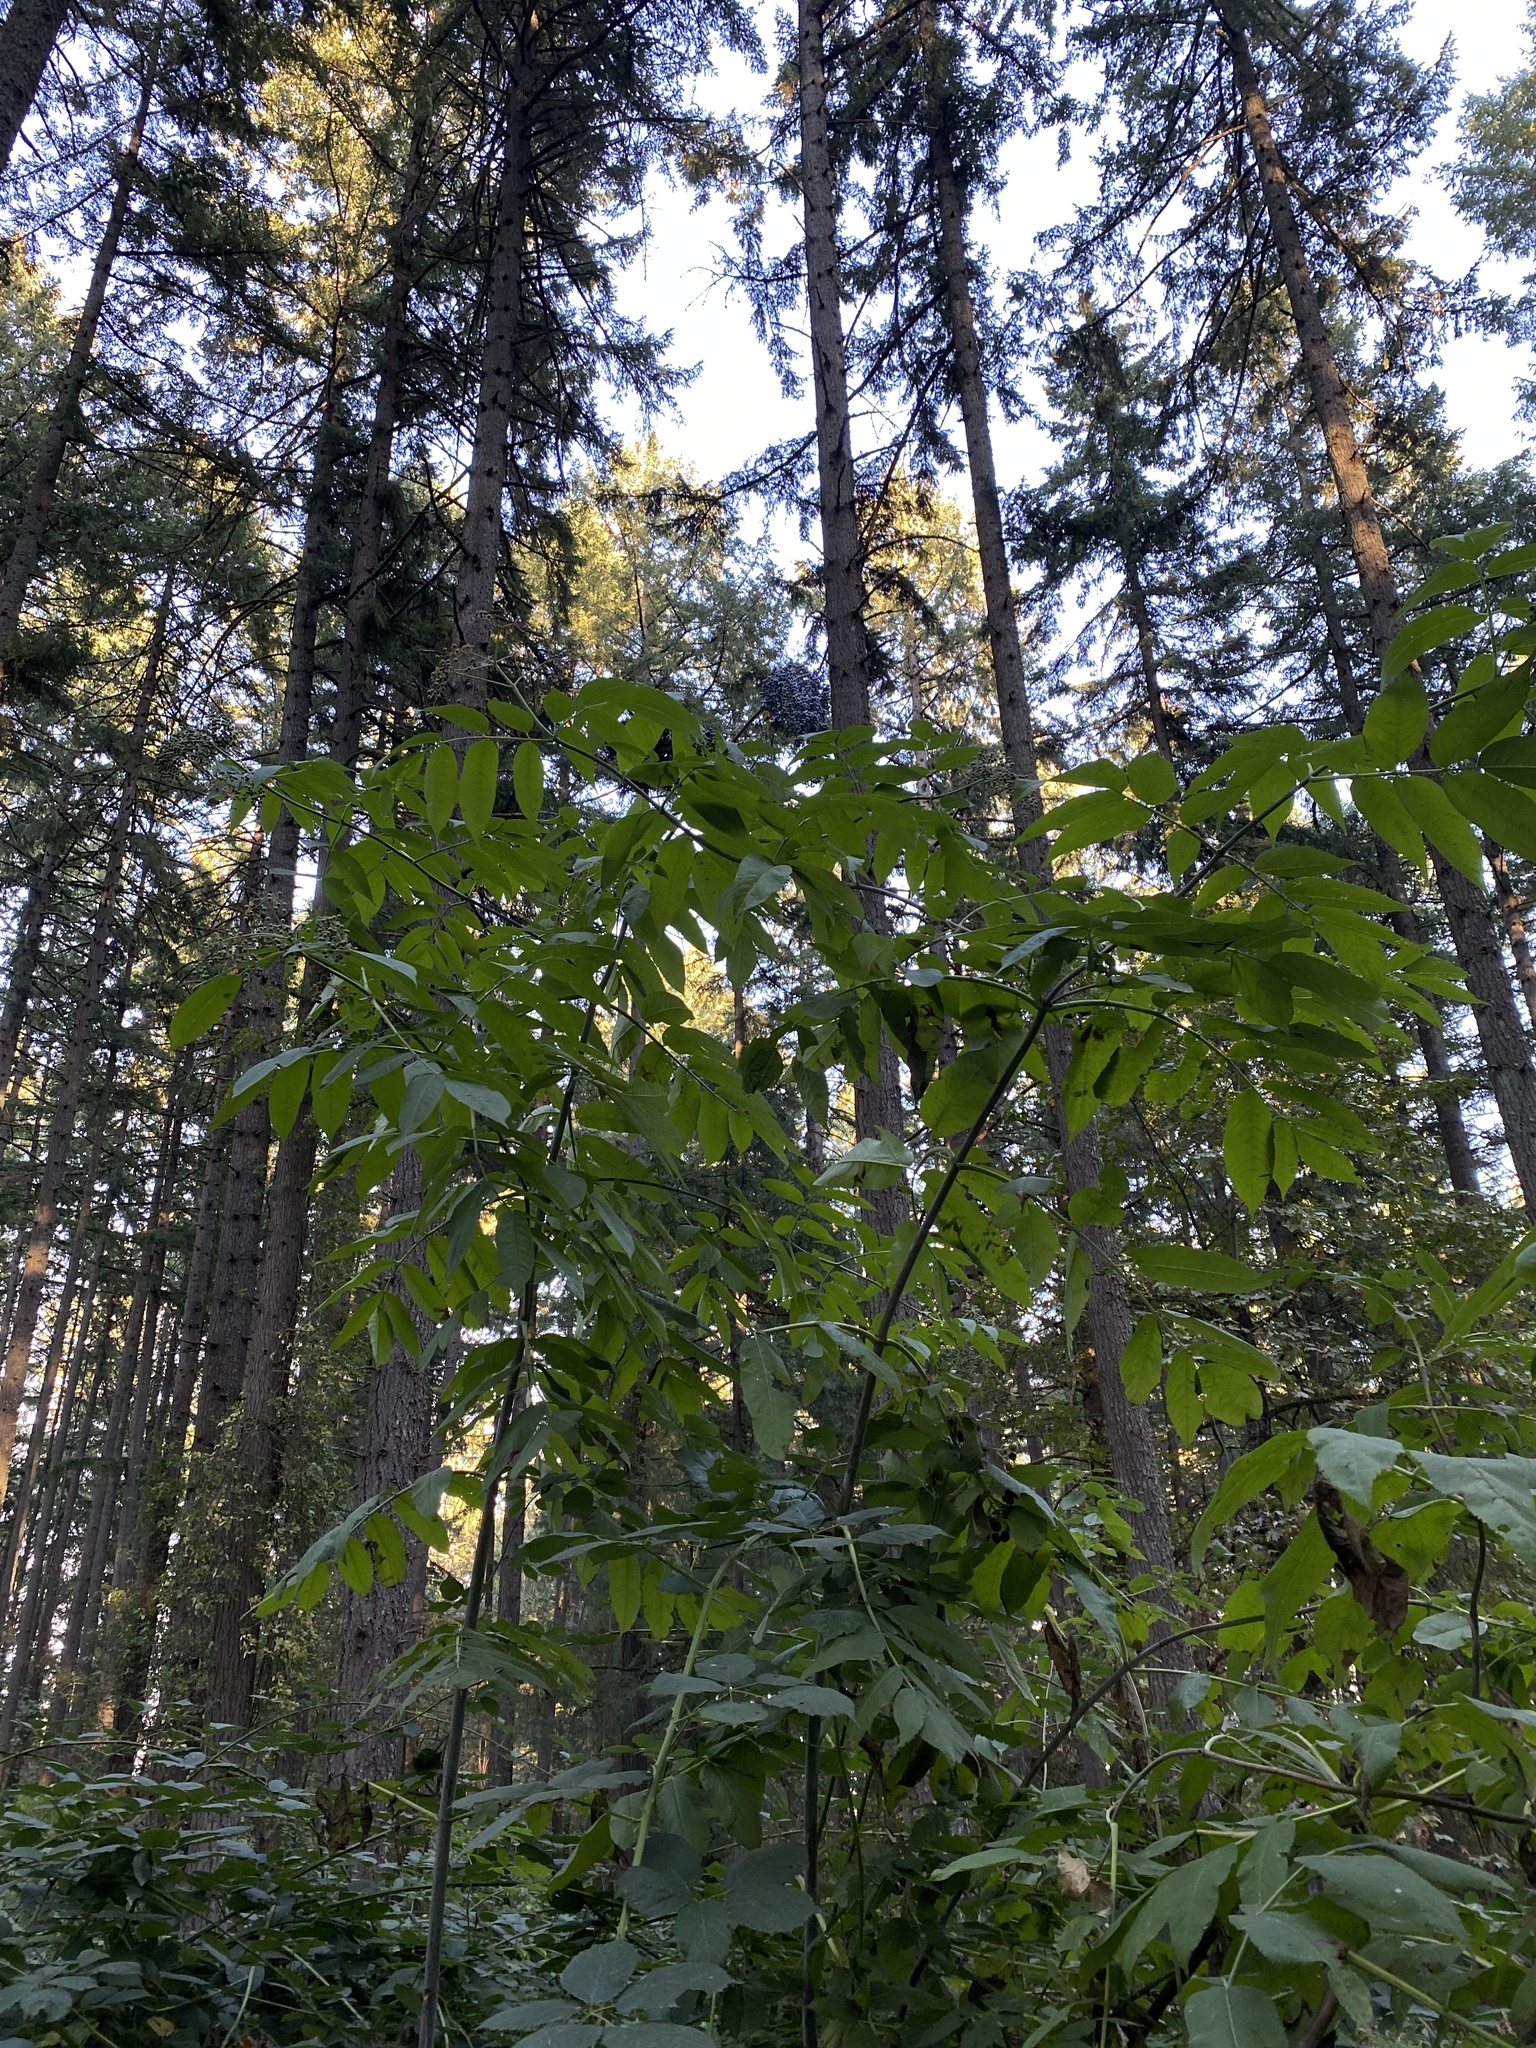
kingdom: Plantae
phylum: Tracheophyta
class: Magnoliopsida
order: Dipsacales
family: Viburnaceae
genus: Sambucus
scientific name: Sambucus cerulea
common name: Blue elder
